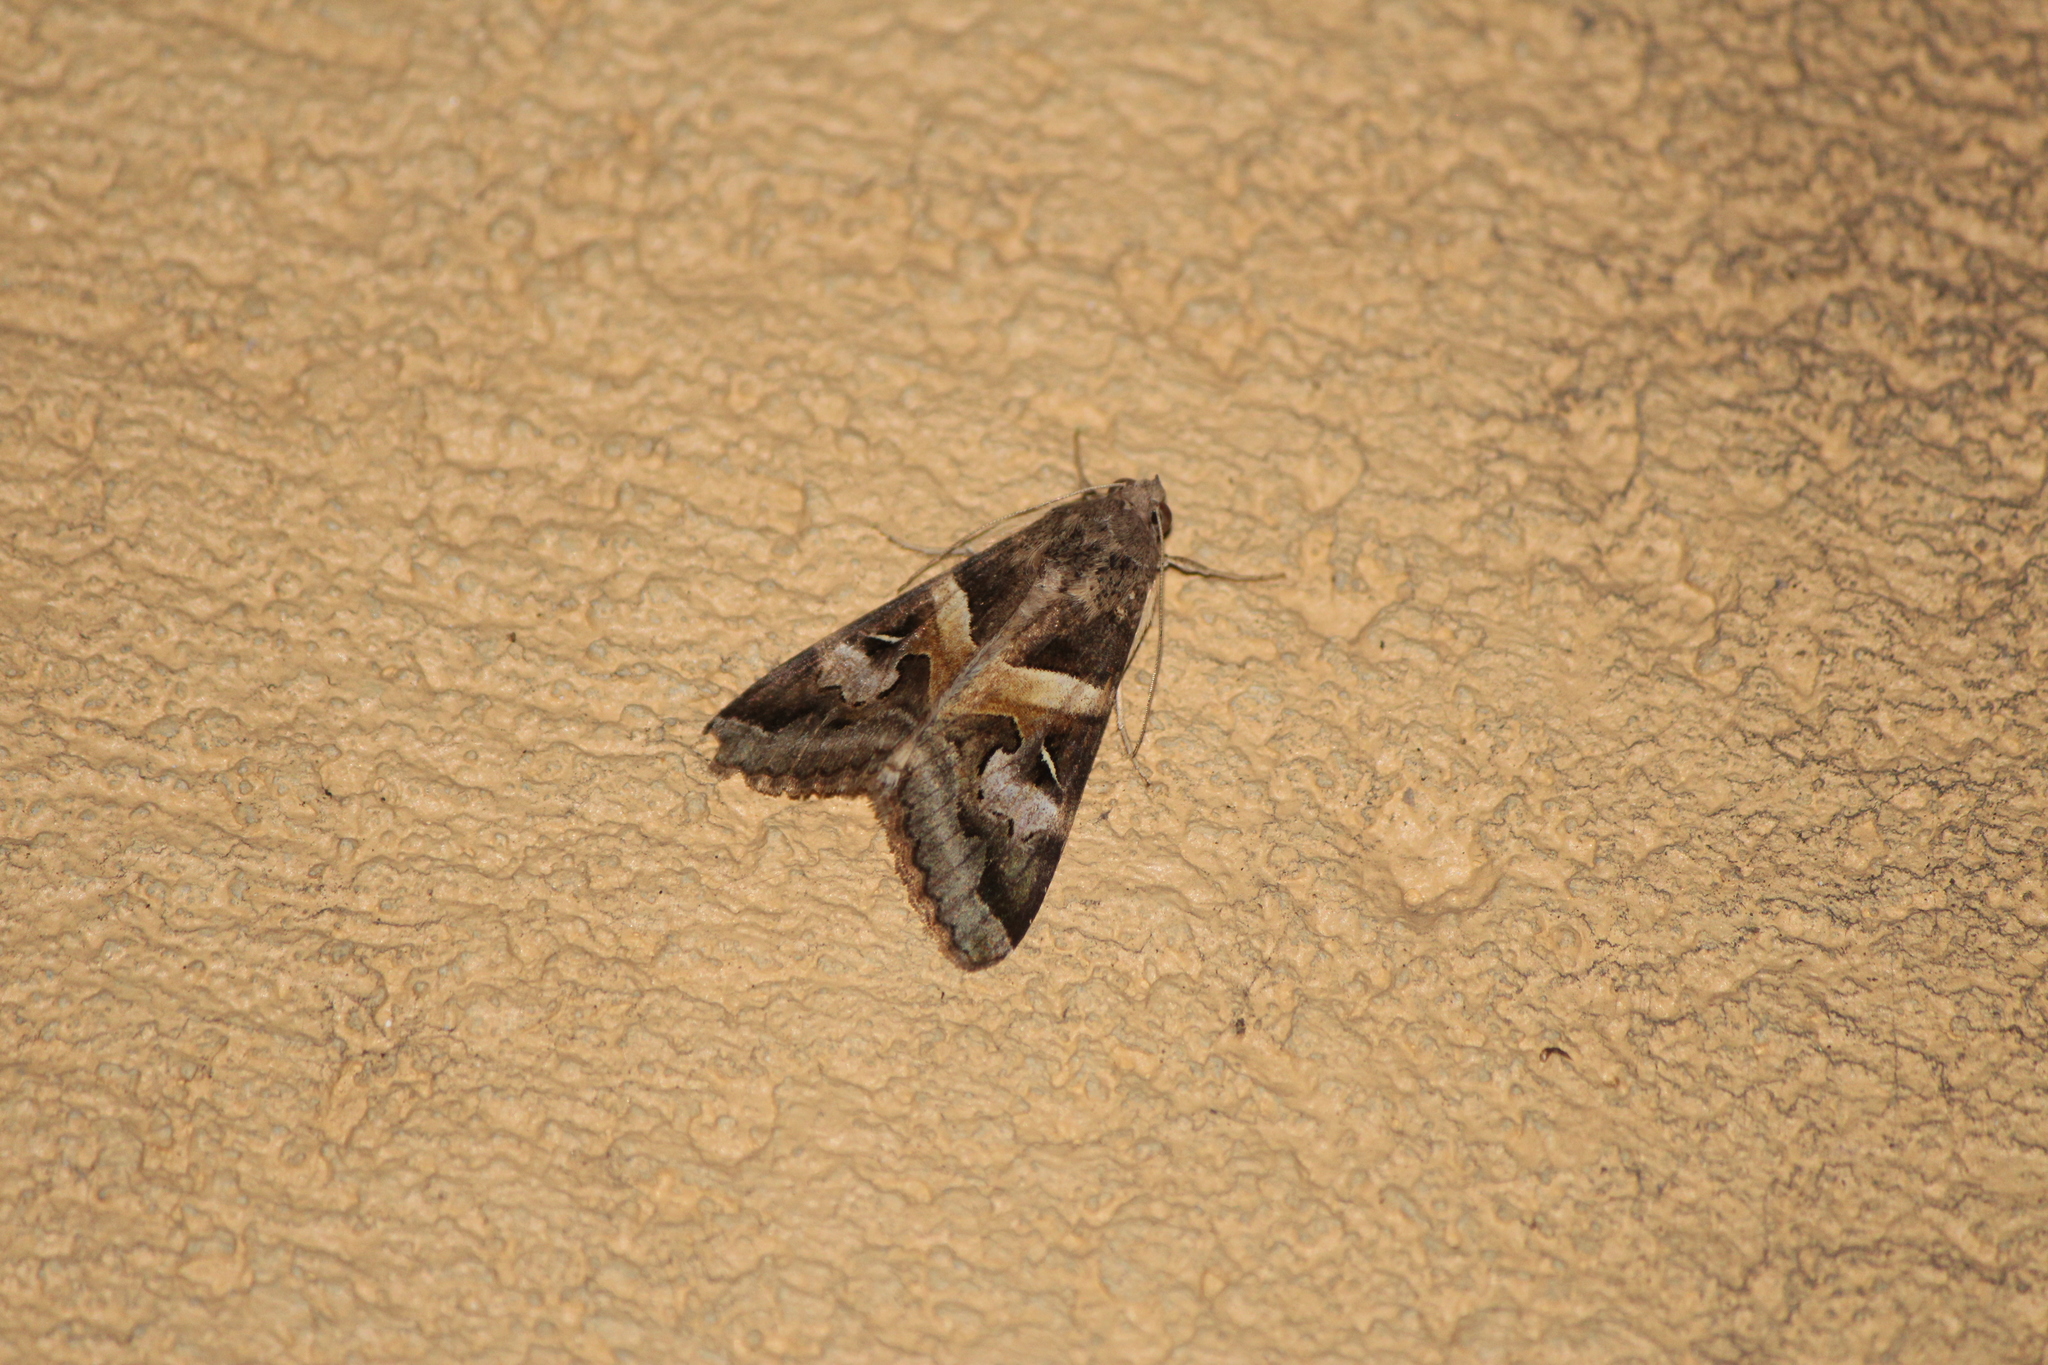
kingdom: Animalia
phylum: Arthropoda
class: Insecta
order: Lepidoptera
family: Erebidae
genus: Melipotis
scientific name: Melipotis indomita
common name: Moth
